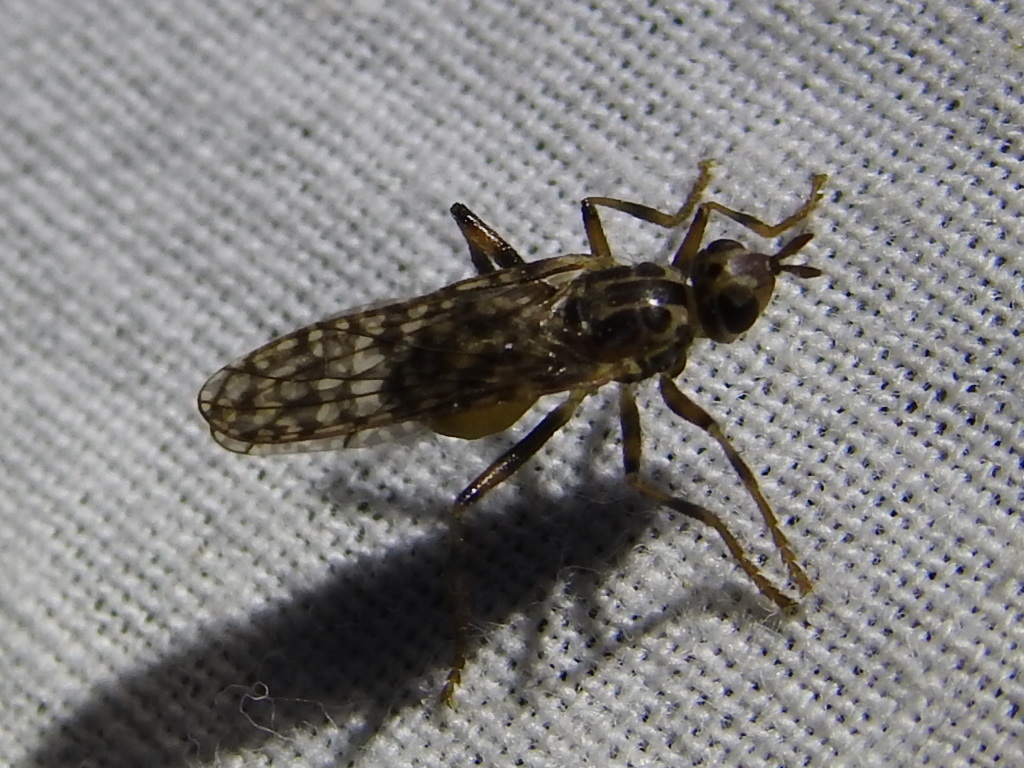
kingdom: Animalia
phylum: Arthropoda
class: Insecta
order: Diptera
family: Pyrgotidae
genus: Boreothrinax
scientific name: Boreothrinax
